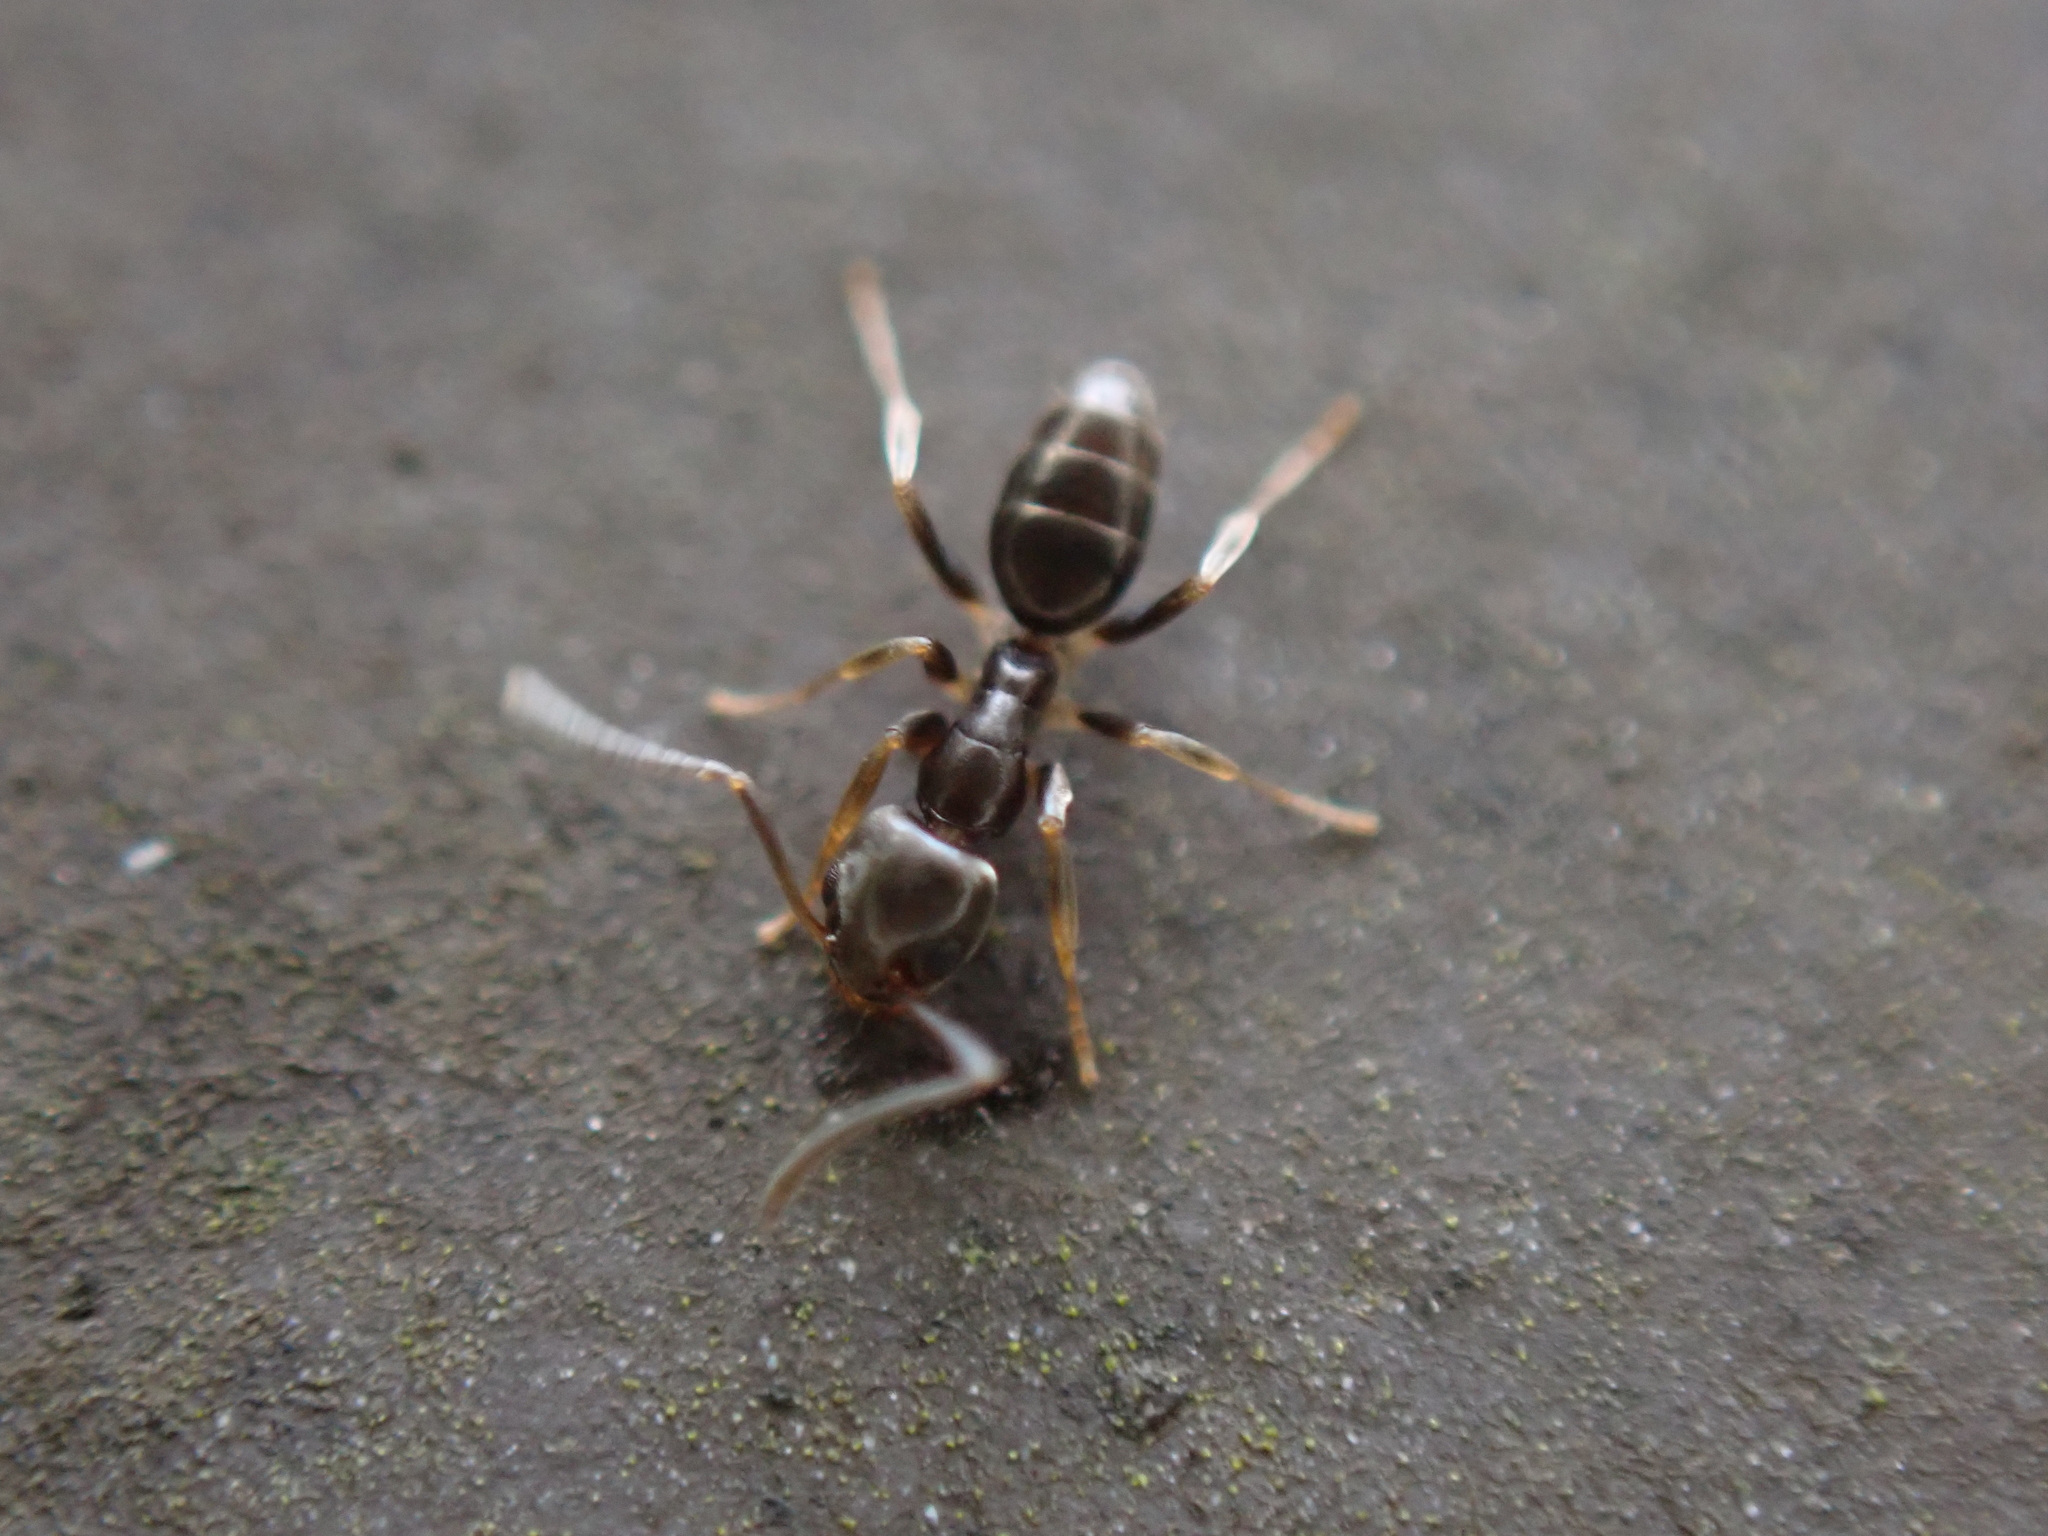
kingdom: Animalia
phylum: Arthropoda
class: Insecta
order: Hymenoptera
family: Formicidae
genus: Tapinoma
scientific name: Tapinoma sessile
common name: Odorous house ant
